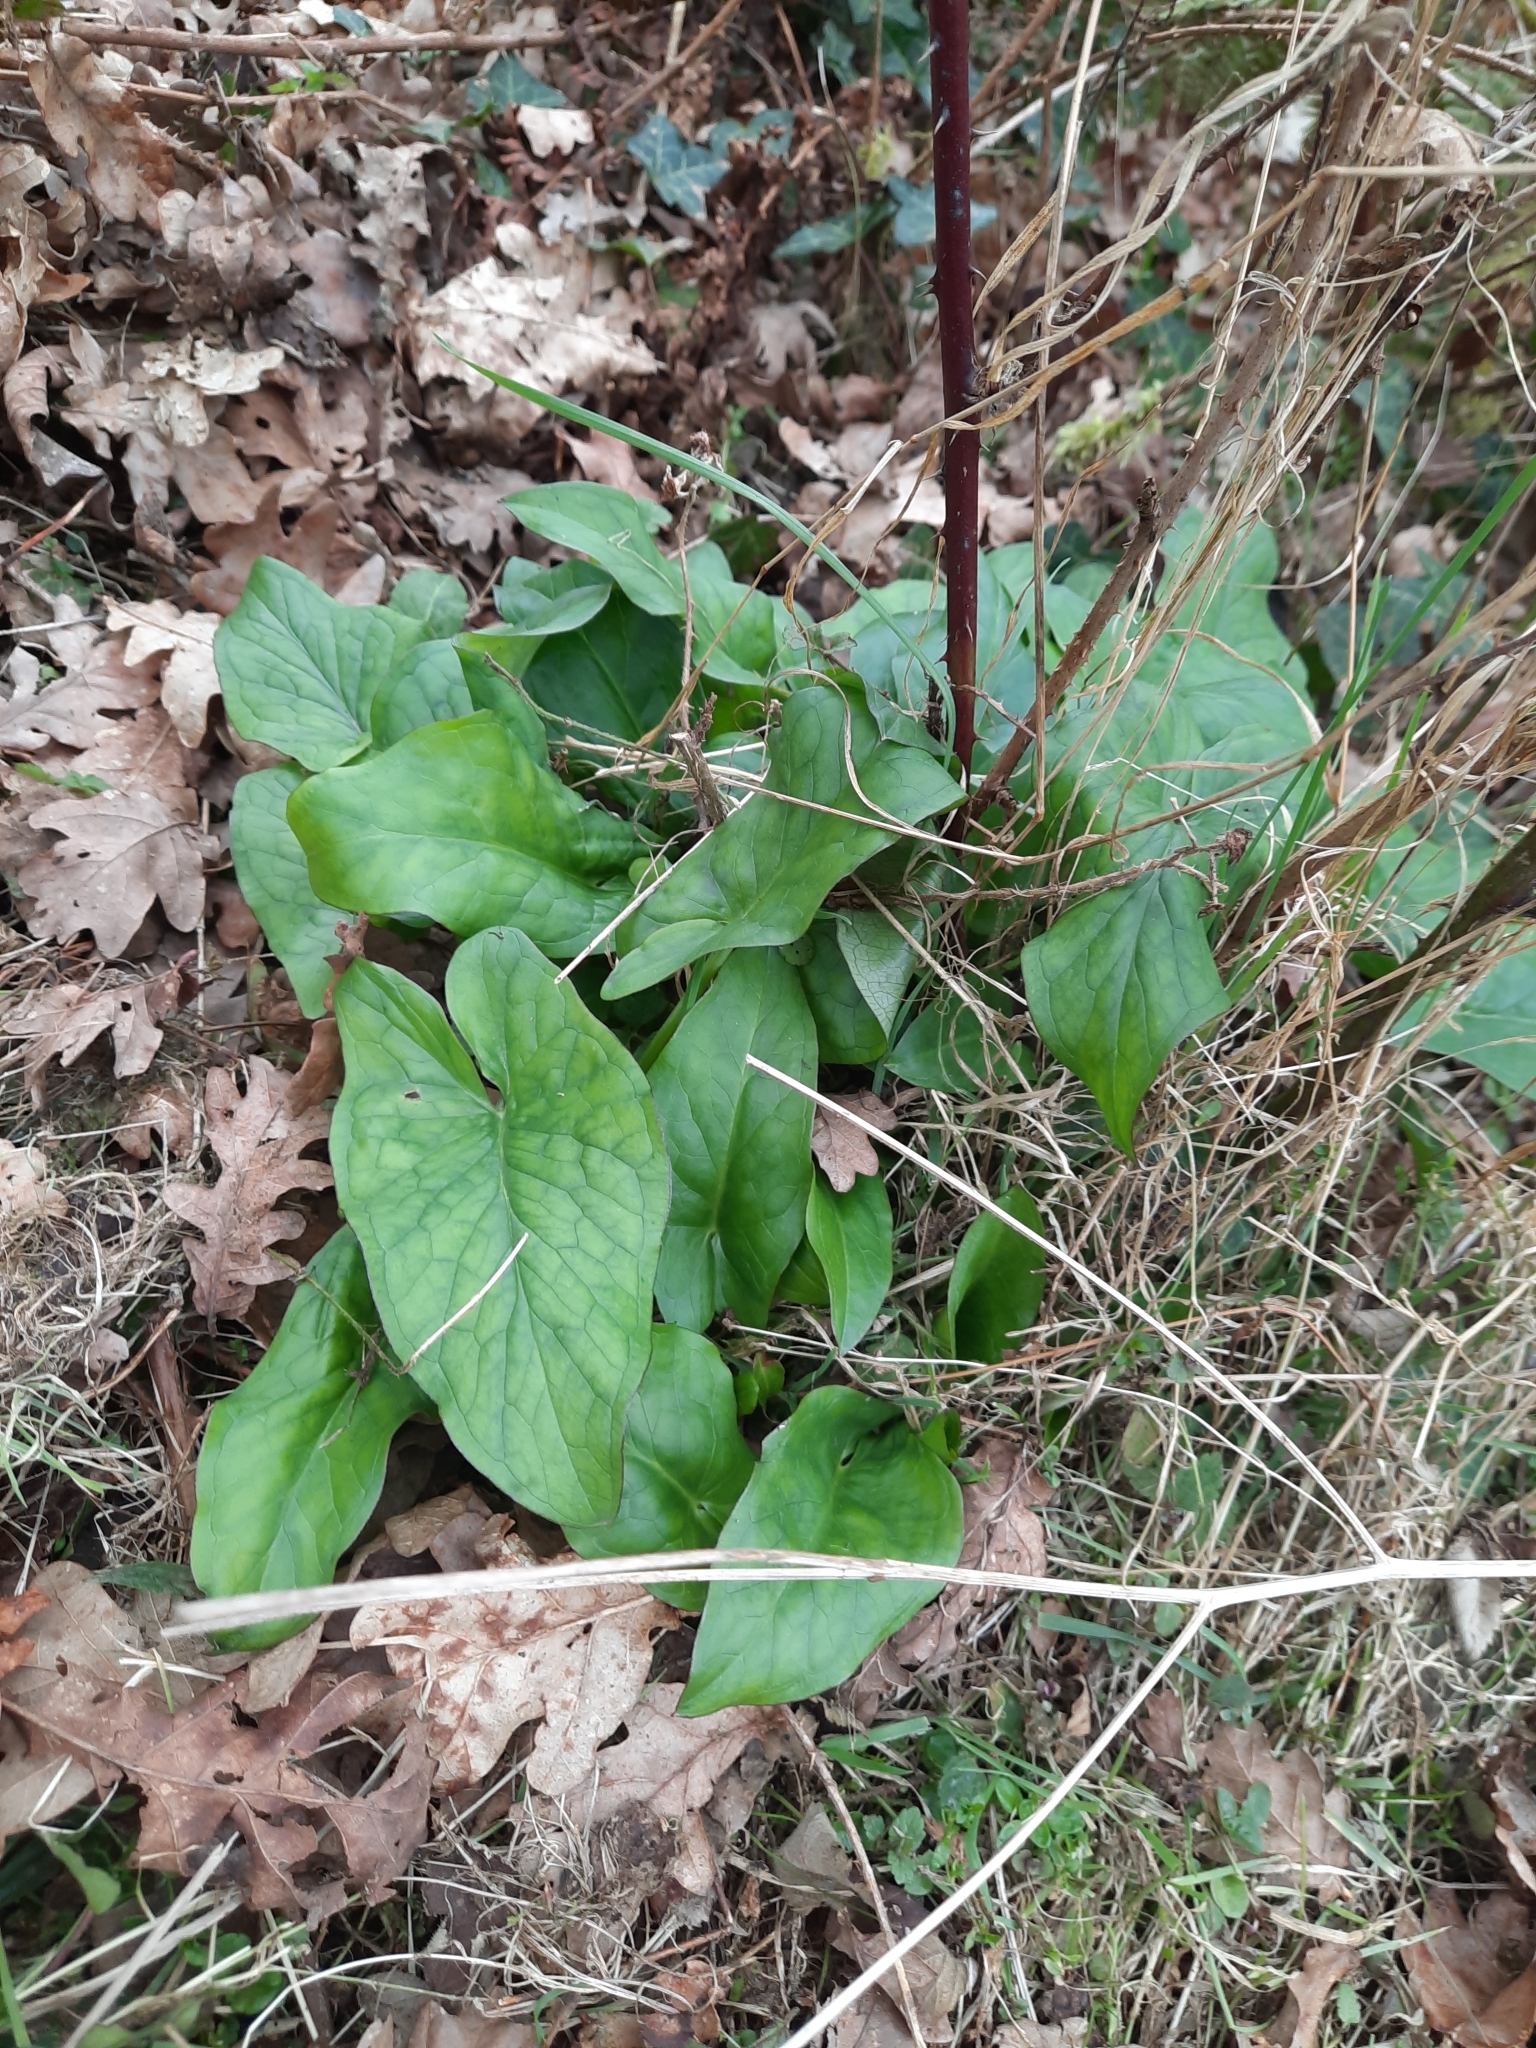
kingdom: Plantae
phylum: Tracheophyta
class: Liliopsida
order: Alismatales
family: Araceae
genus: Arum
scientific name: Arum maculatum
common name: Lords-and-ladies
